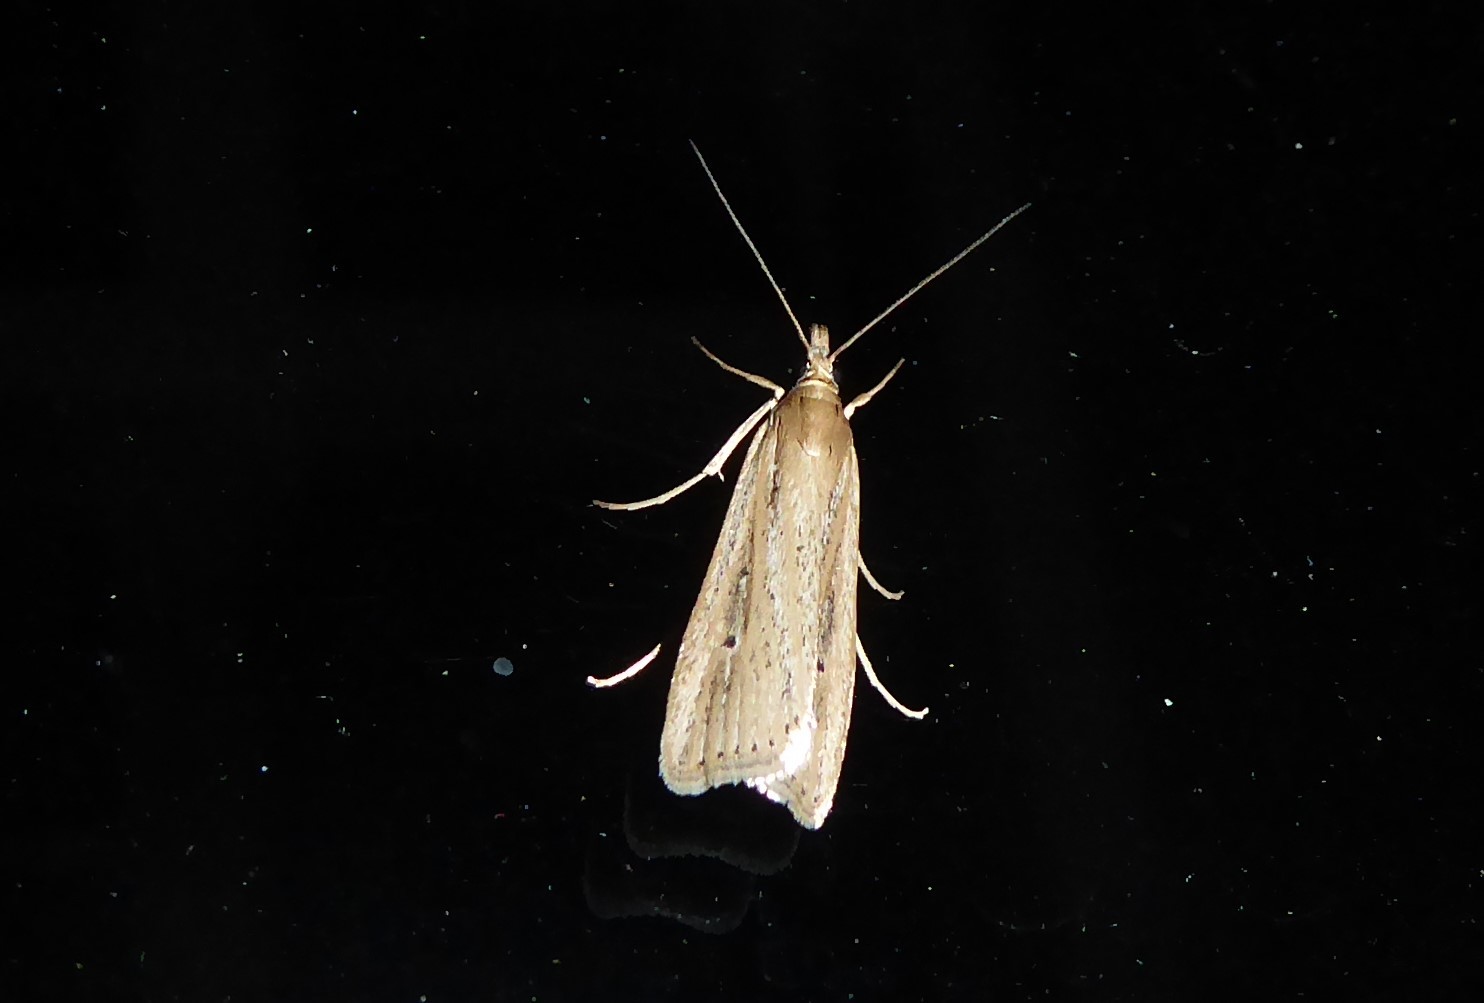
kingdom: Animalia
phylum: Arthropoda
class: Insecta
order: Lepidoptera
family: Crambidae
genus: Eudonia
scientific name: Eudonia sabulosella
